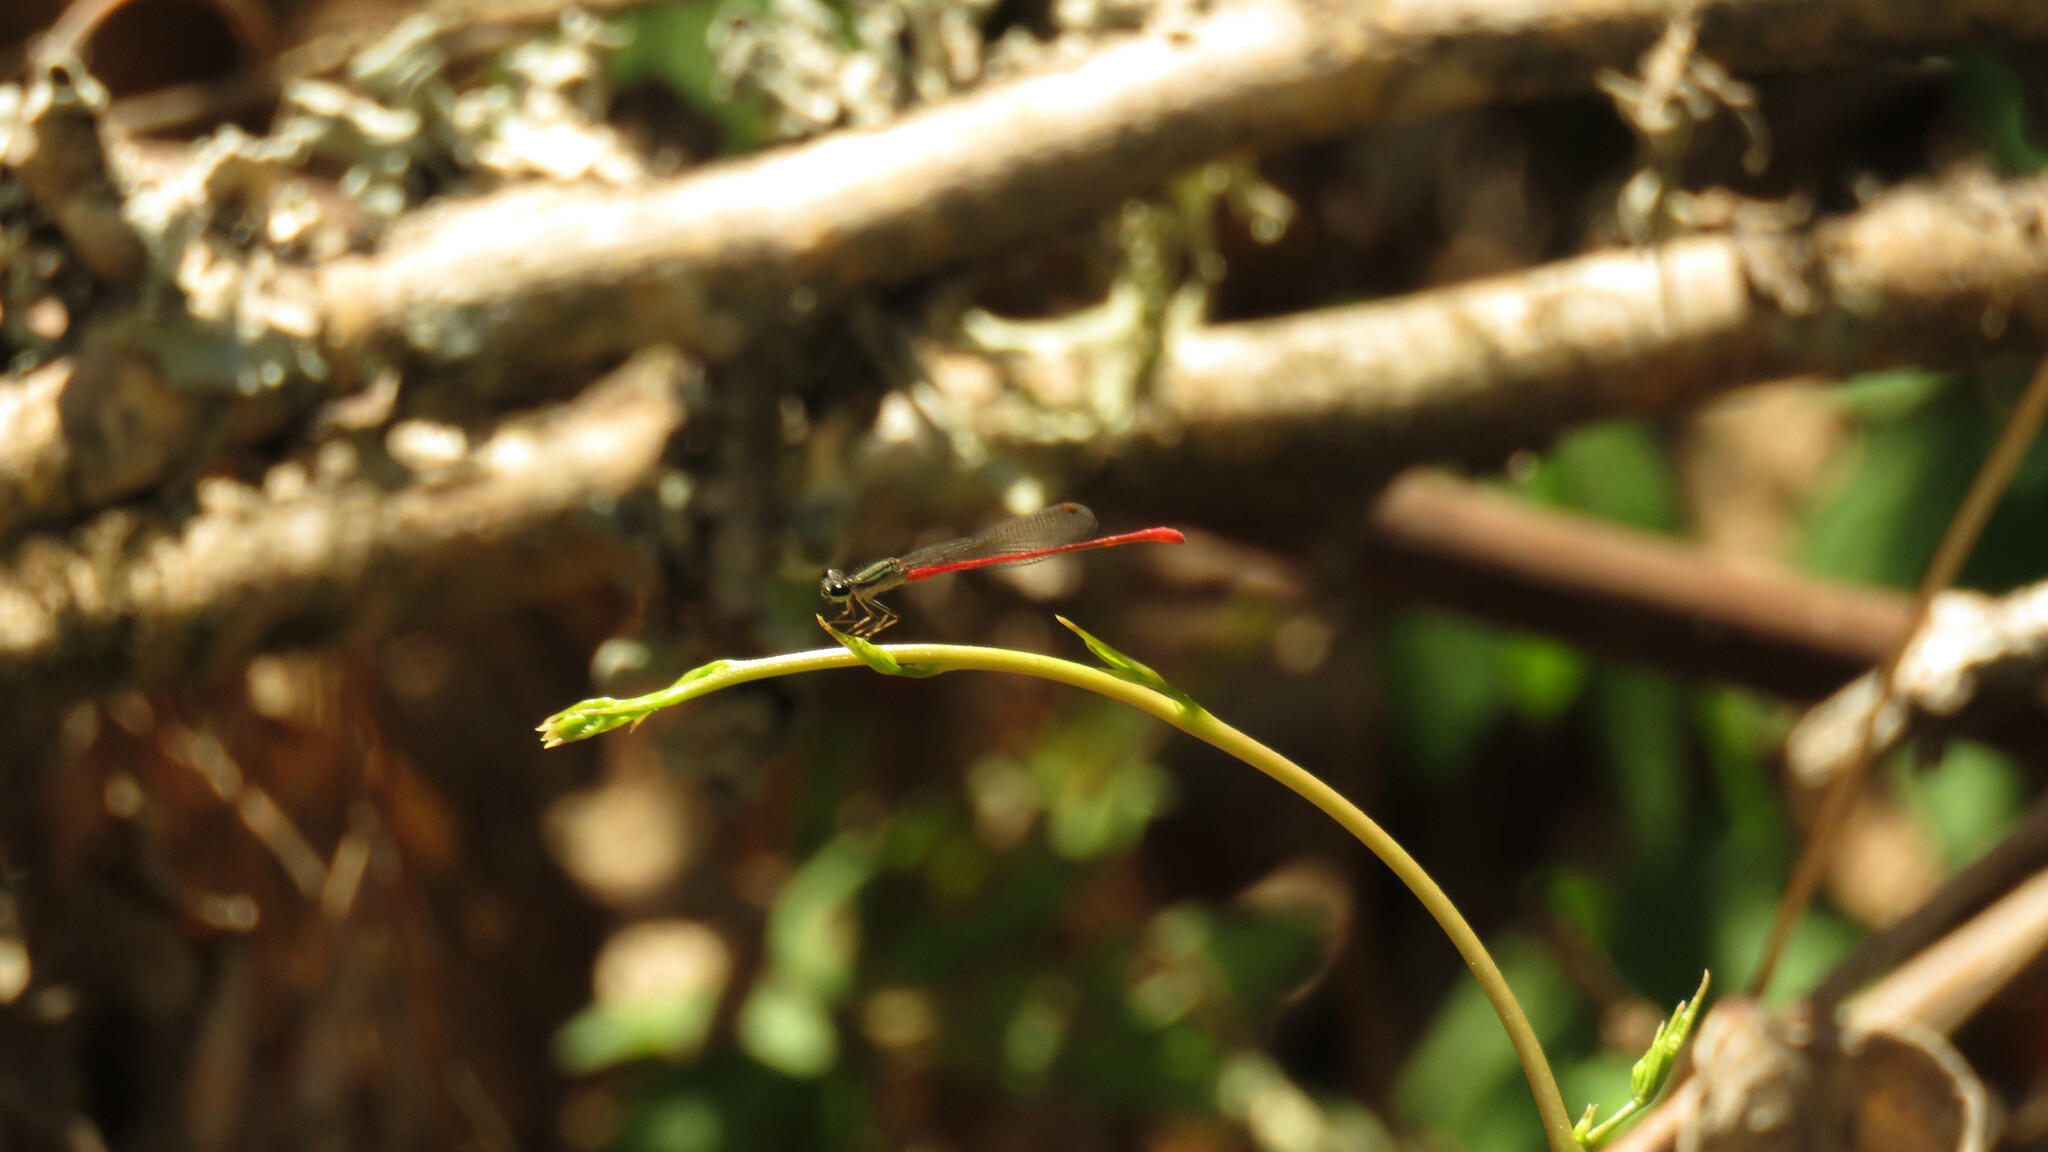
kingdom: Animalia
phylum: Arthropoda
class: Insecta
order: Odonata
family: Coenagrionidae
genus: Telebasis
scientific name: Telebasis willinki
